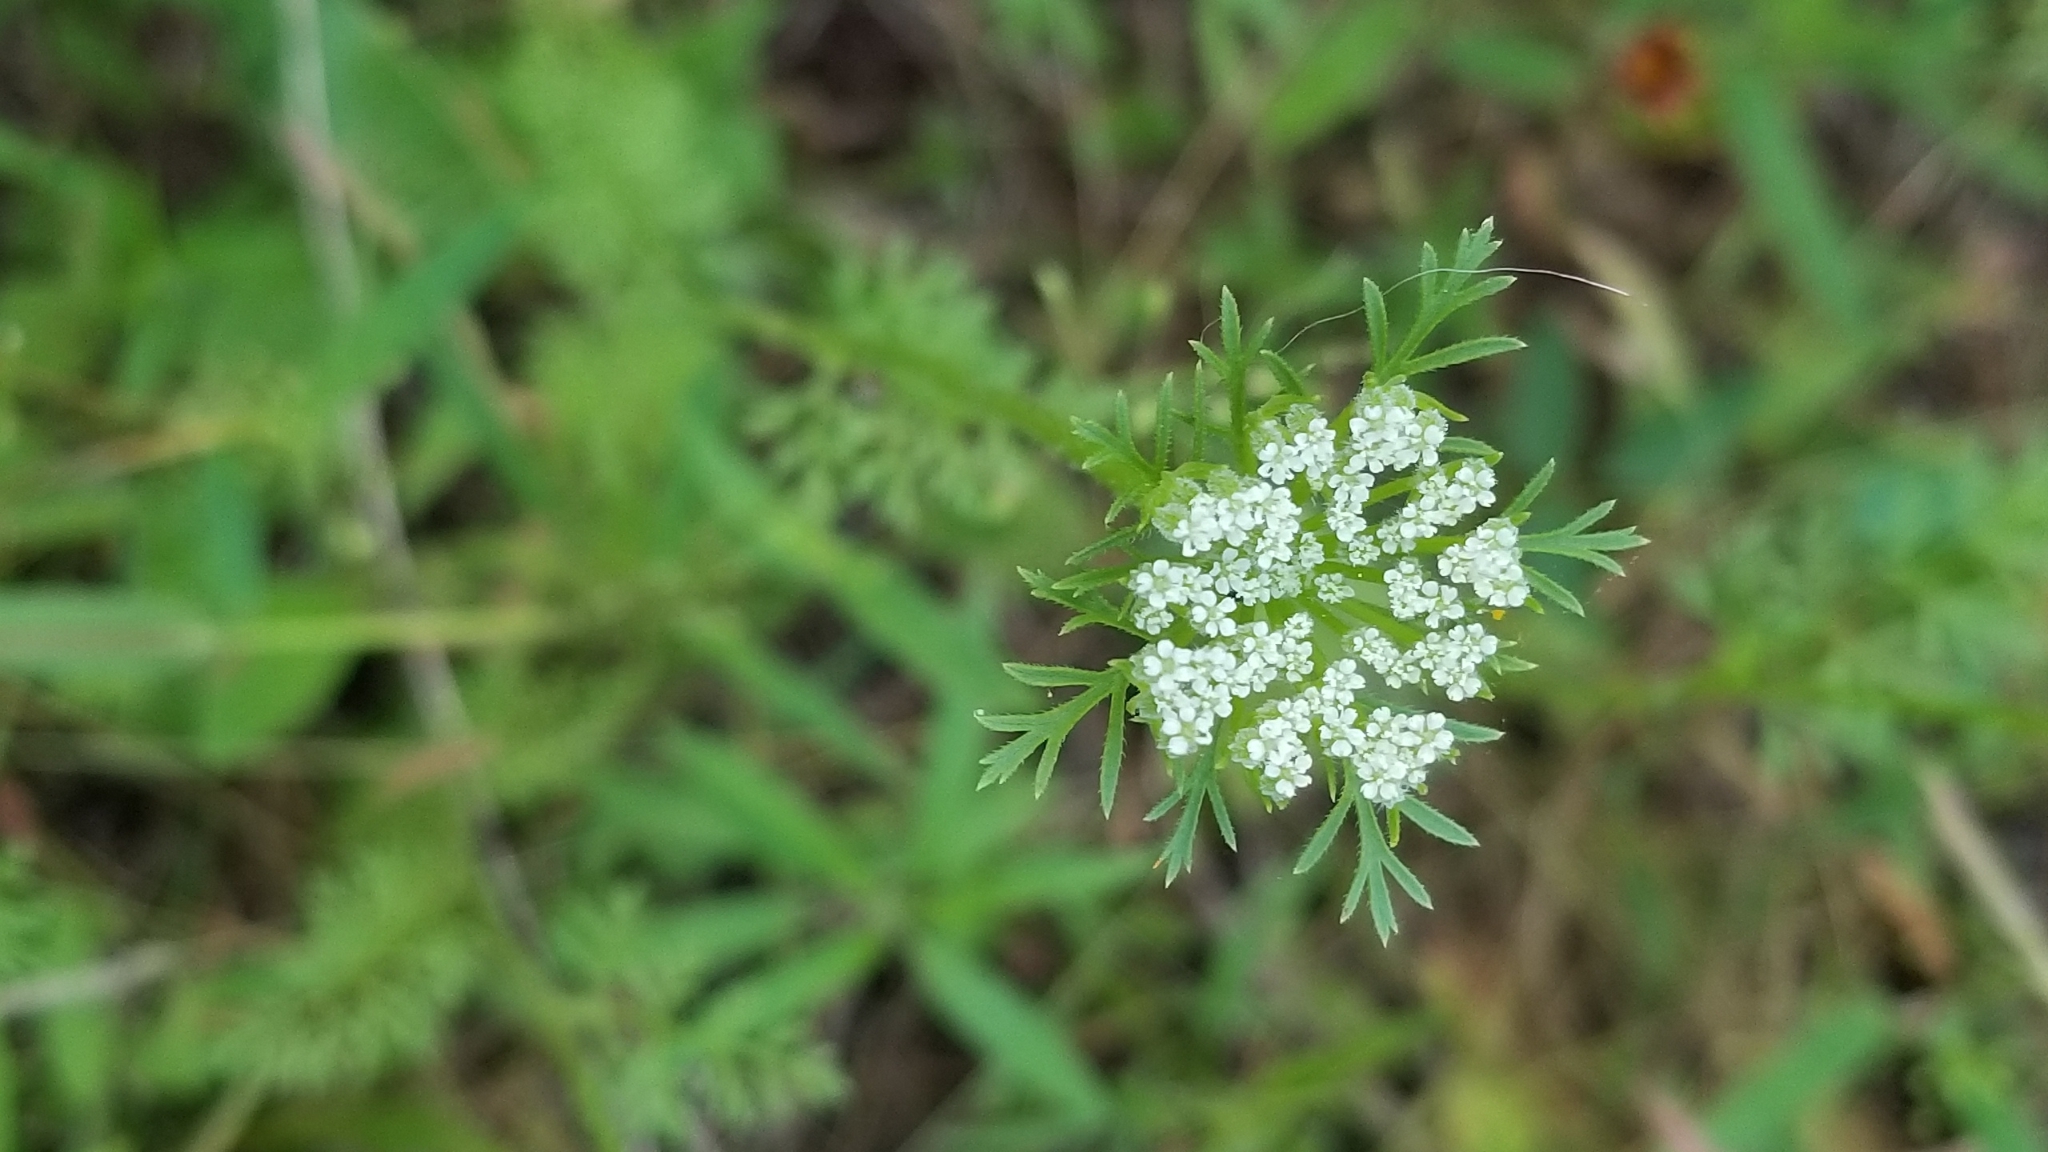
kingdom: Plantae
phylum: Tracheophyta
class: Magnoliopsida
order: Apiales
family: Apiaceae
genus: Daucus
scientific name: Daucus pusillus
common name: Southwest wild carrot
